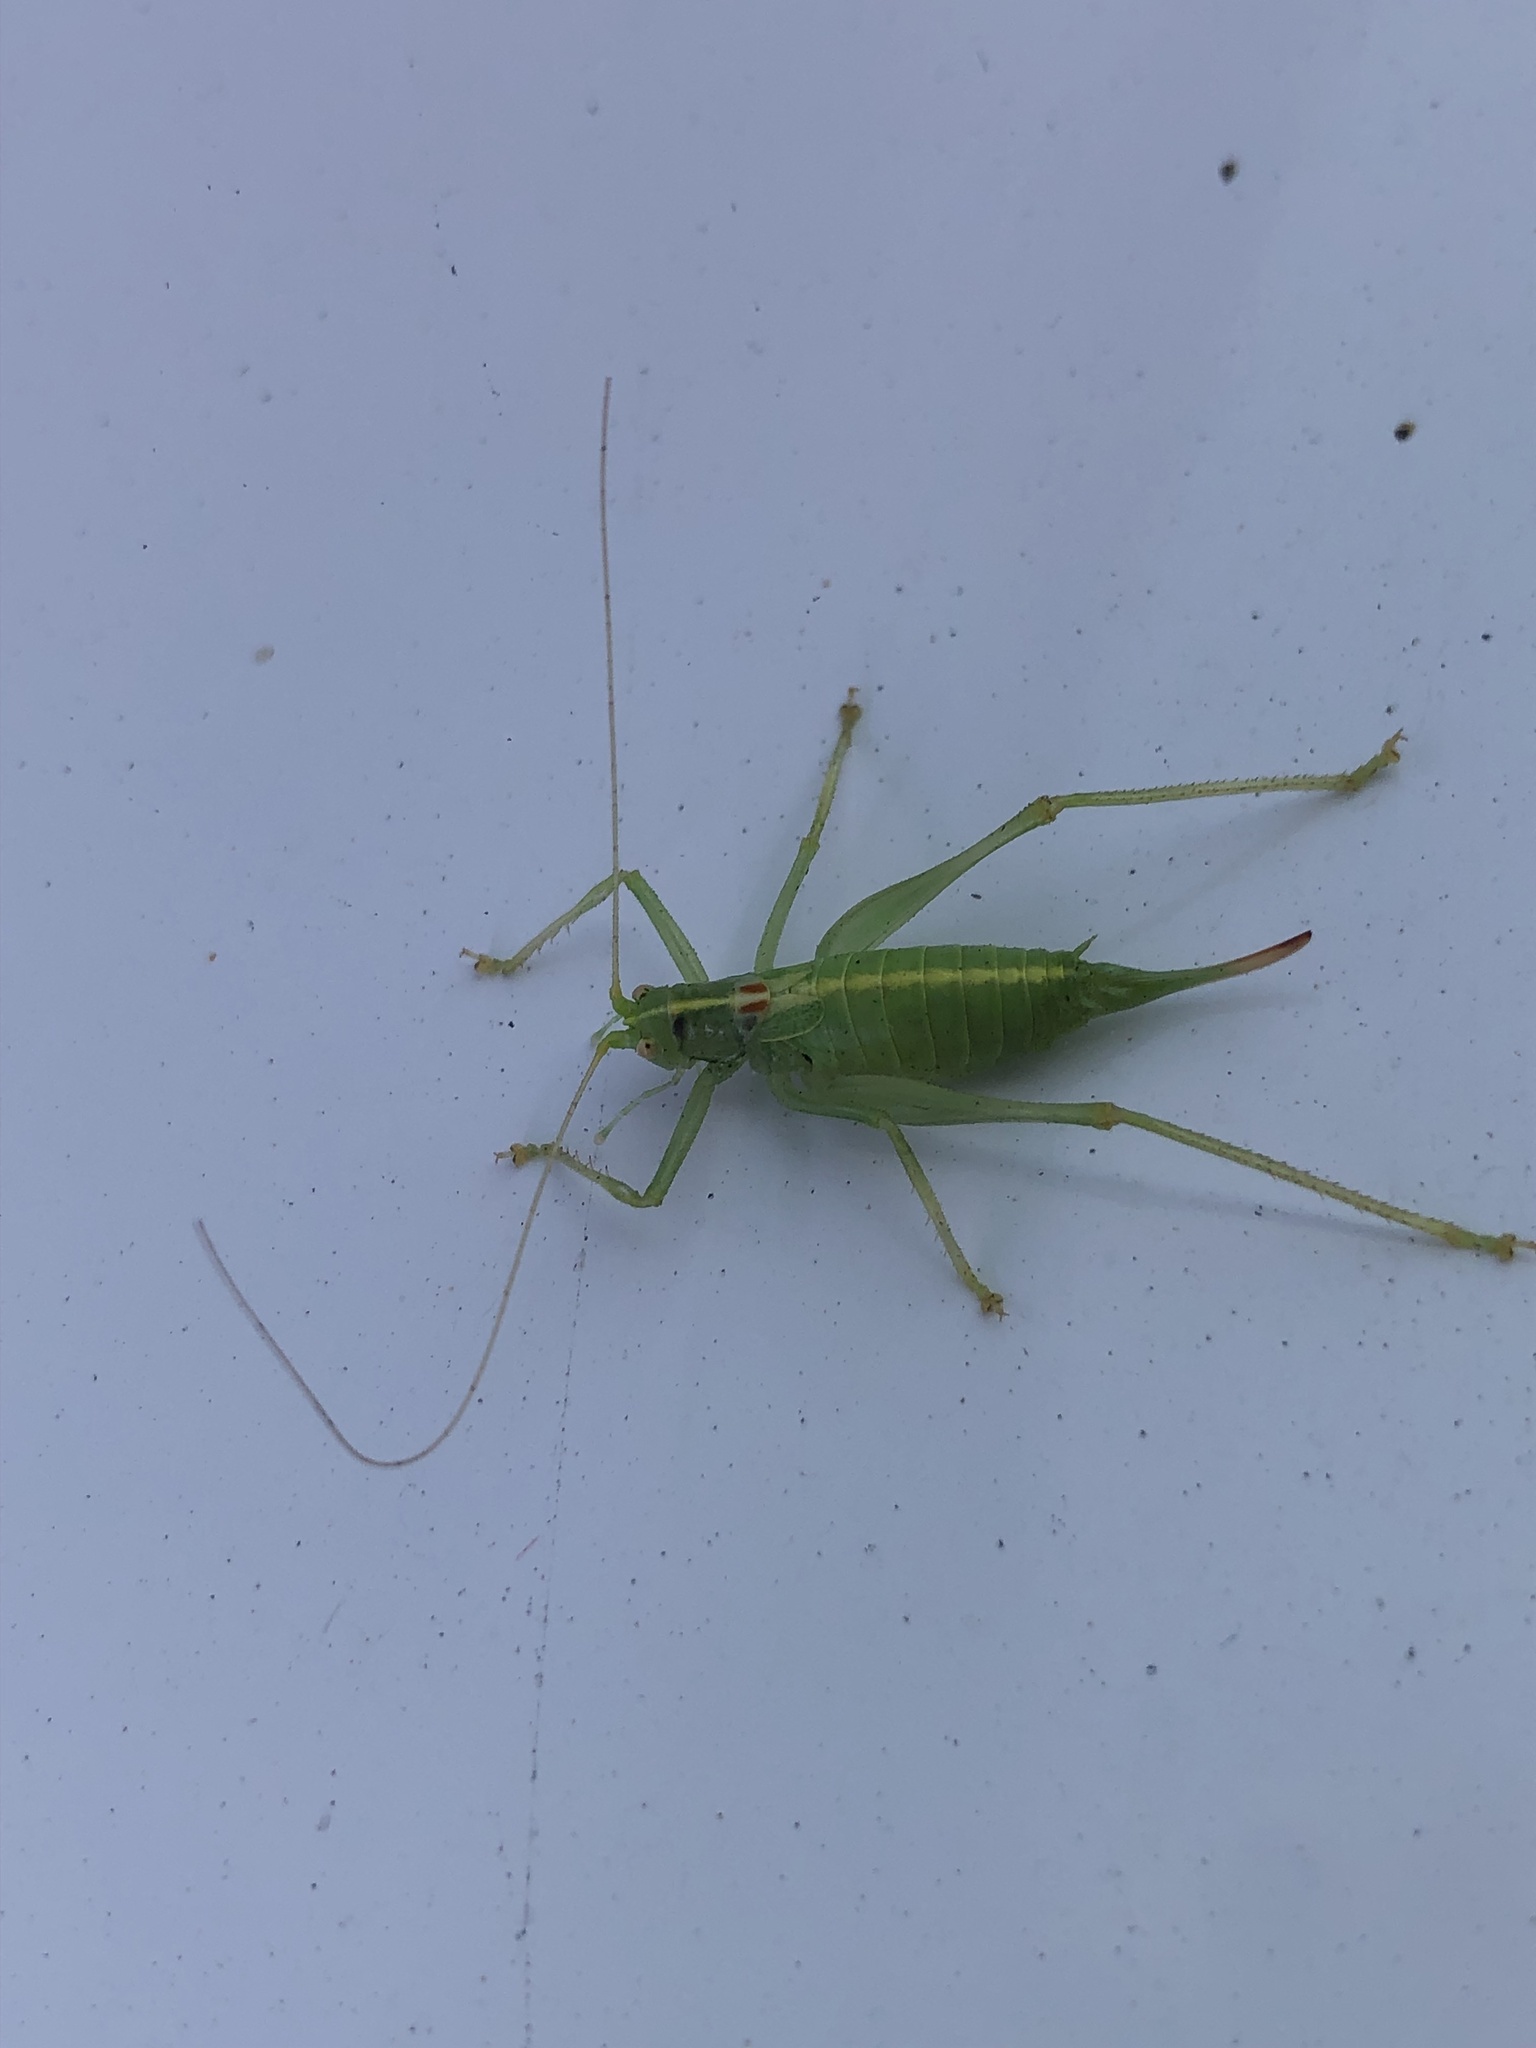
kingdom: Animalia
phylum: Arthropoda
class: Insecta
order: Orthoptera
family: Tettigoniidae
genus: Meconema
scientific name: Meconema meridionale
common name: Southern oak bush-cricket
